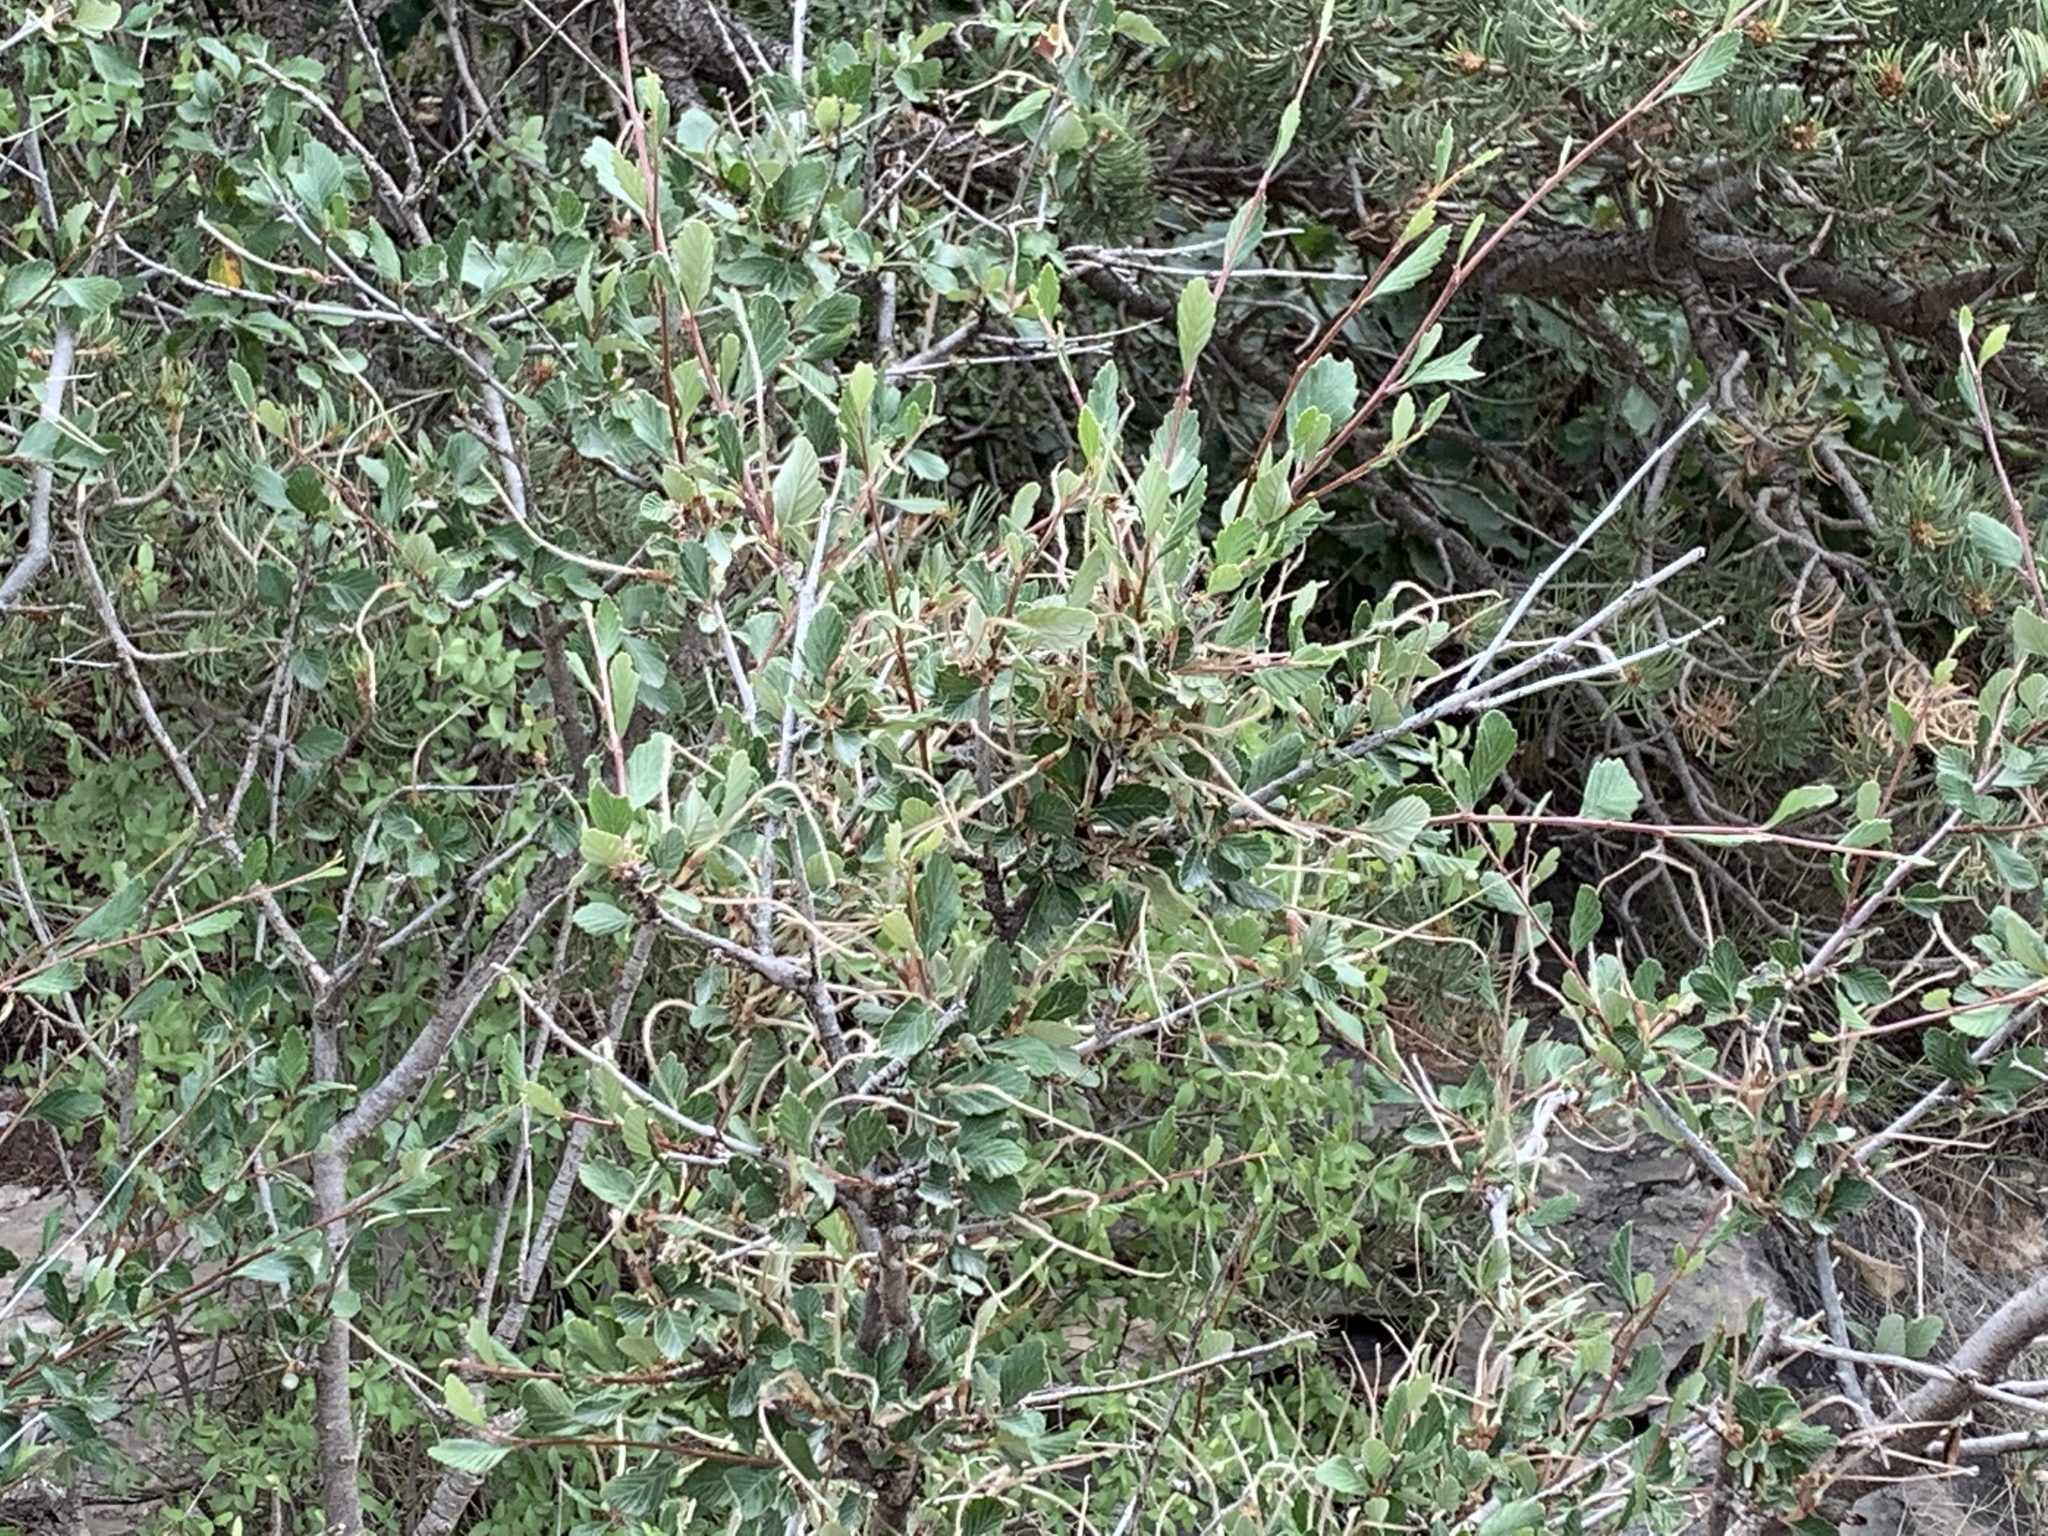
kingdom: Plantae
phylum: Tracheophyta
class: Magnoliopsida
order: Rosales
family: Rosaceae
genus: Cercocarpus
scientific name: Cercocarpus montanus
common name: Alder-leaf cercocarpus
